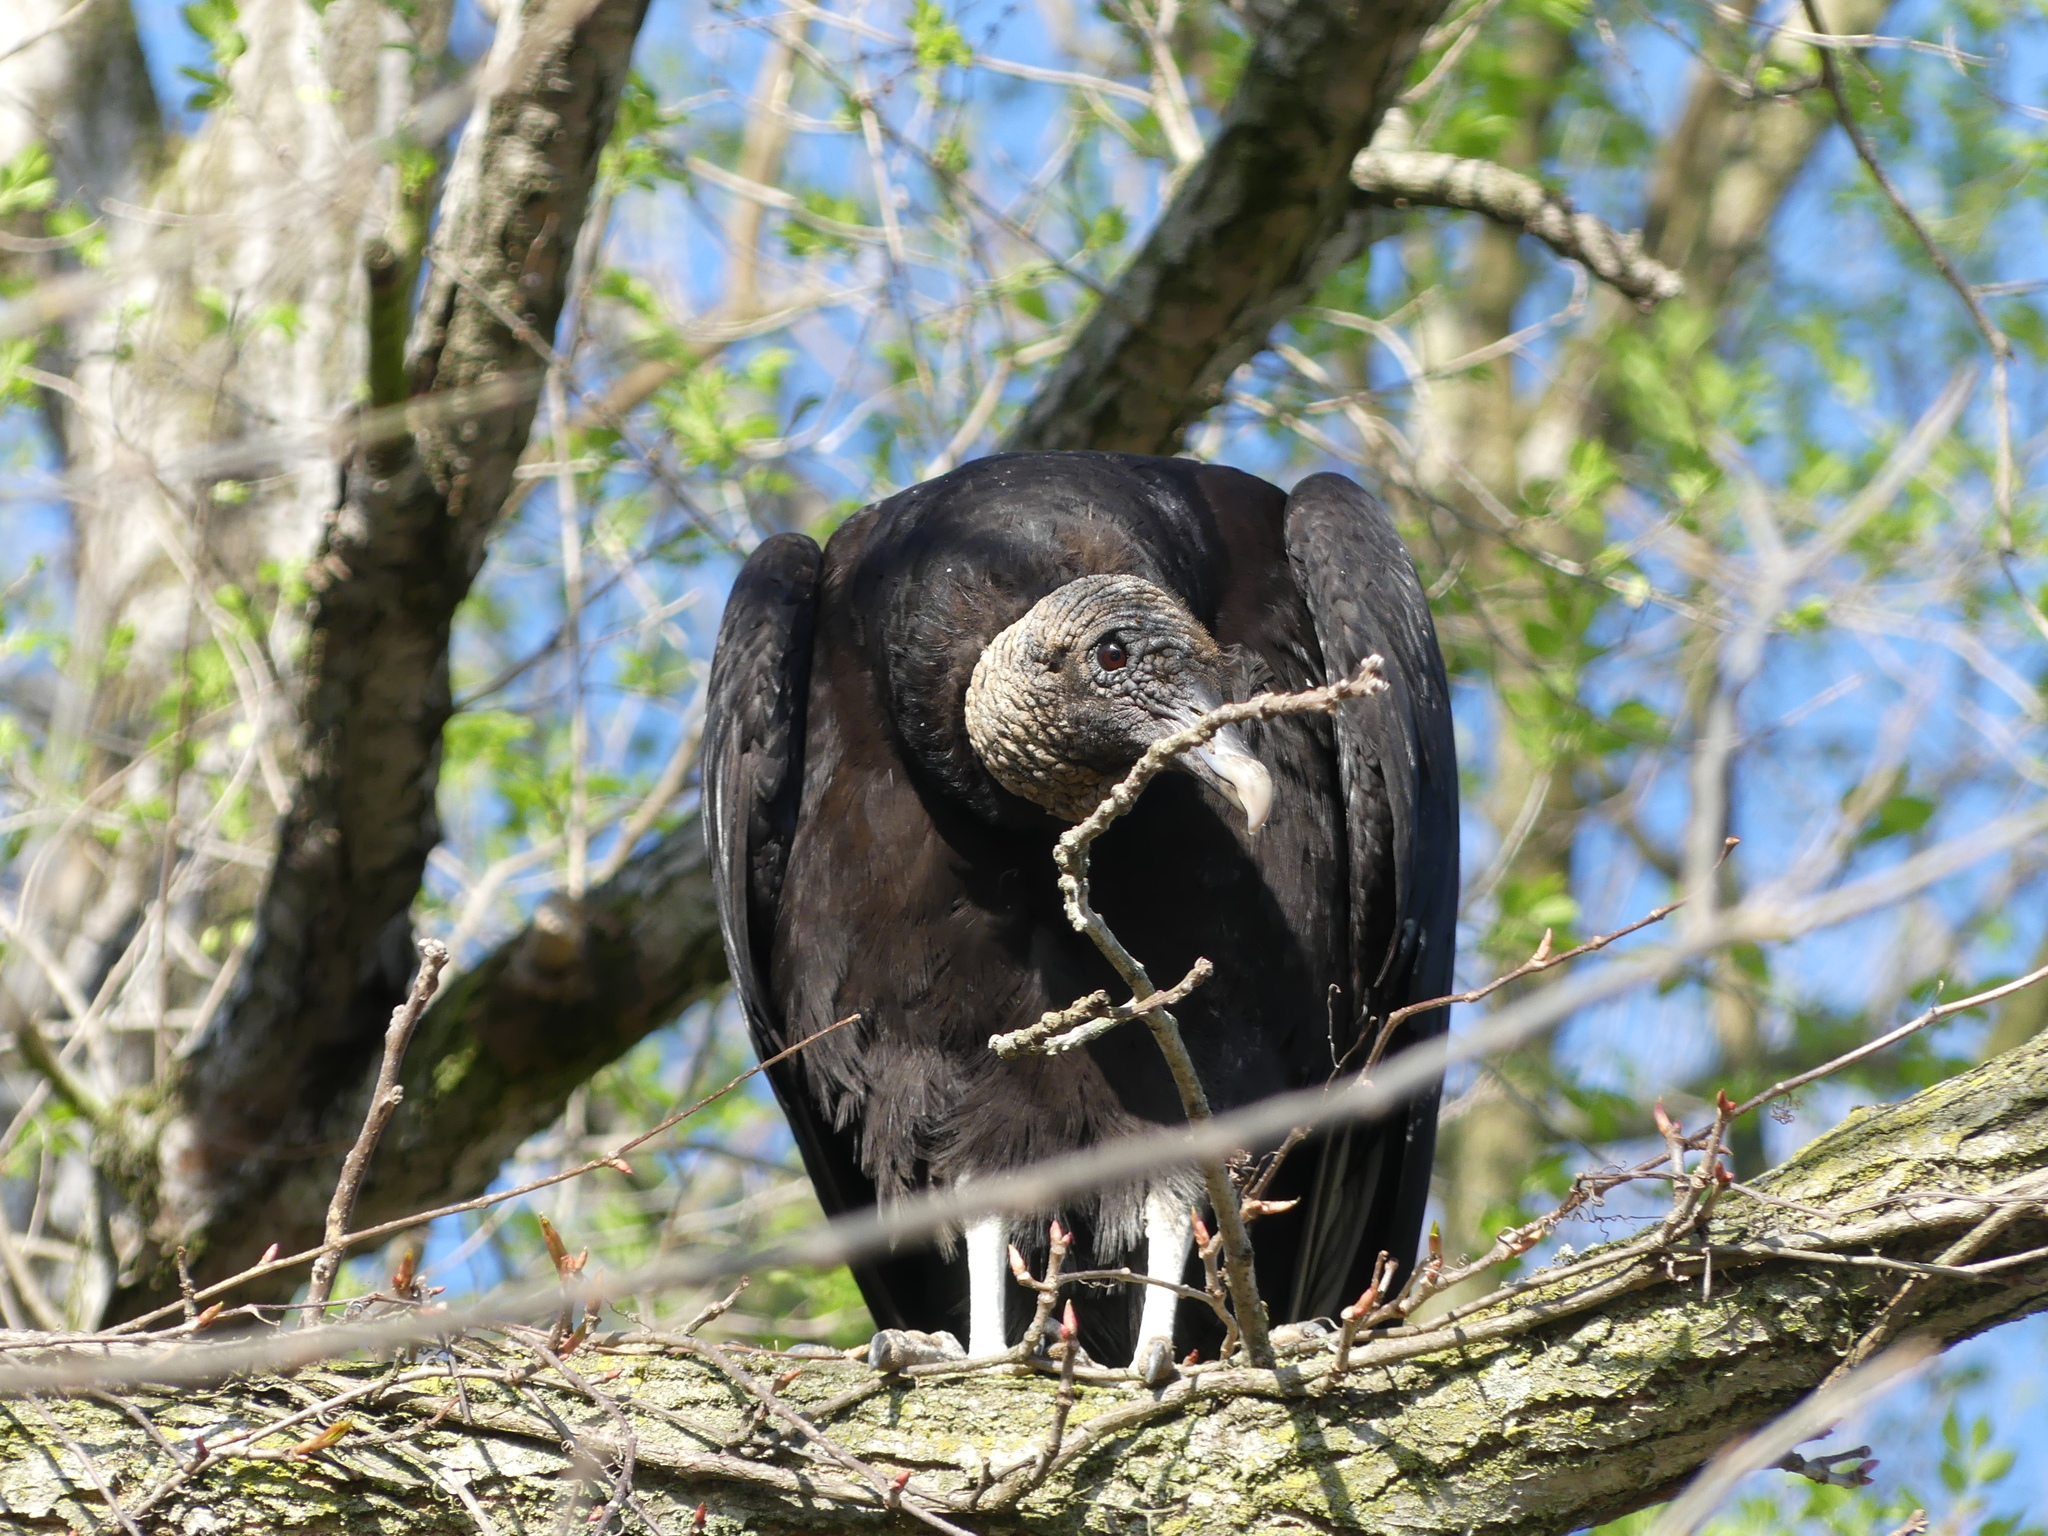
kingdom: Animalia
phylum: Chordata
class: Aves
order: Accipitriformes
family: Cathartidae
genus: Coragyps
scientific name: Coragyps atratus
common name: Black vulture
